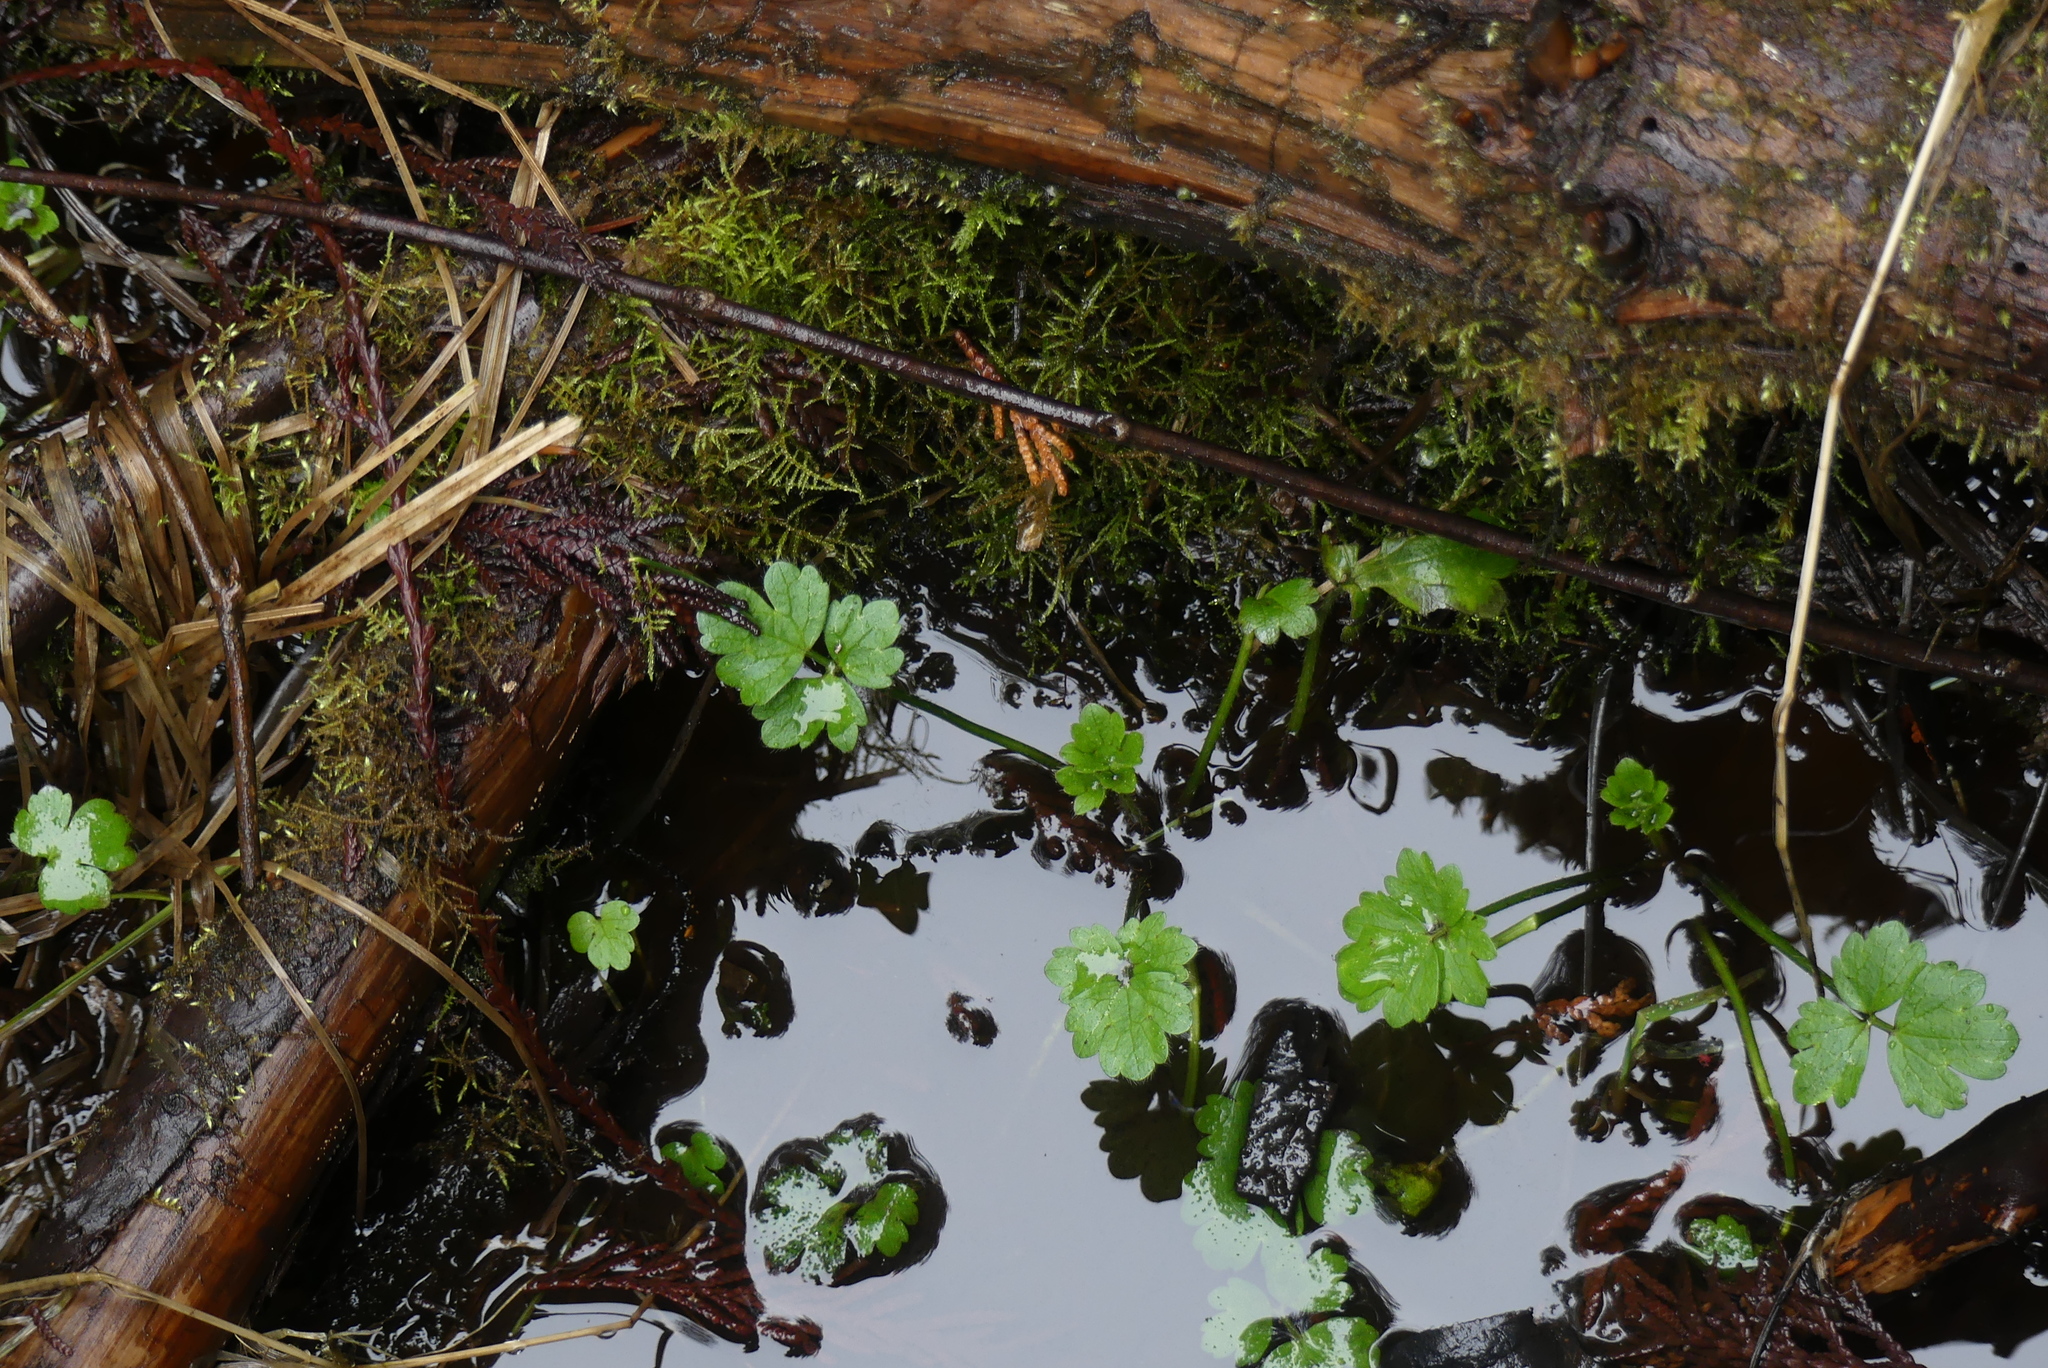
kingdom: Plantae
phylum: Tracheophyta
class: Magnoliopsida
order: Ranunculales
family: Ranunculaceae
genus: Ranunculus
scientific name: Ranunculus repens
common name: Creeping buttercup
